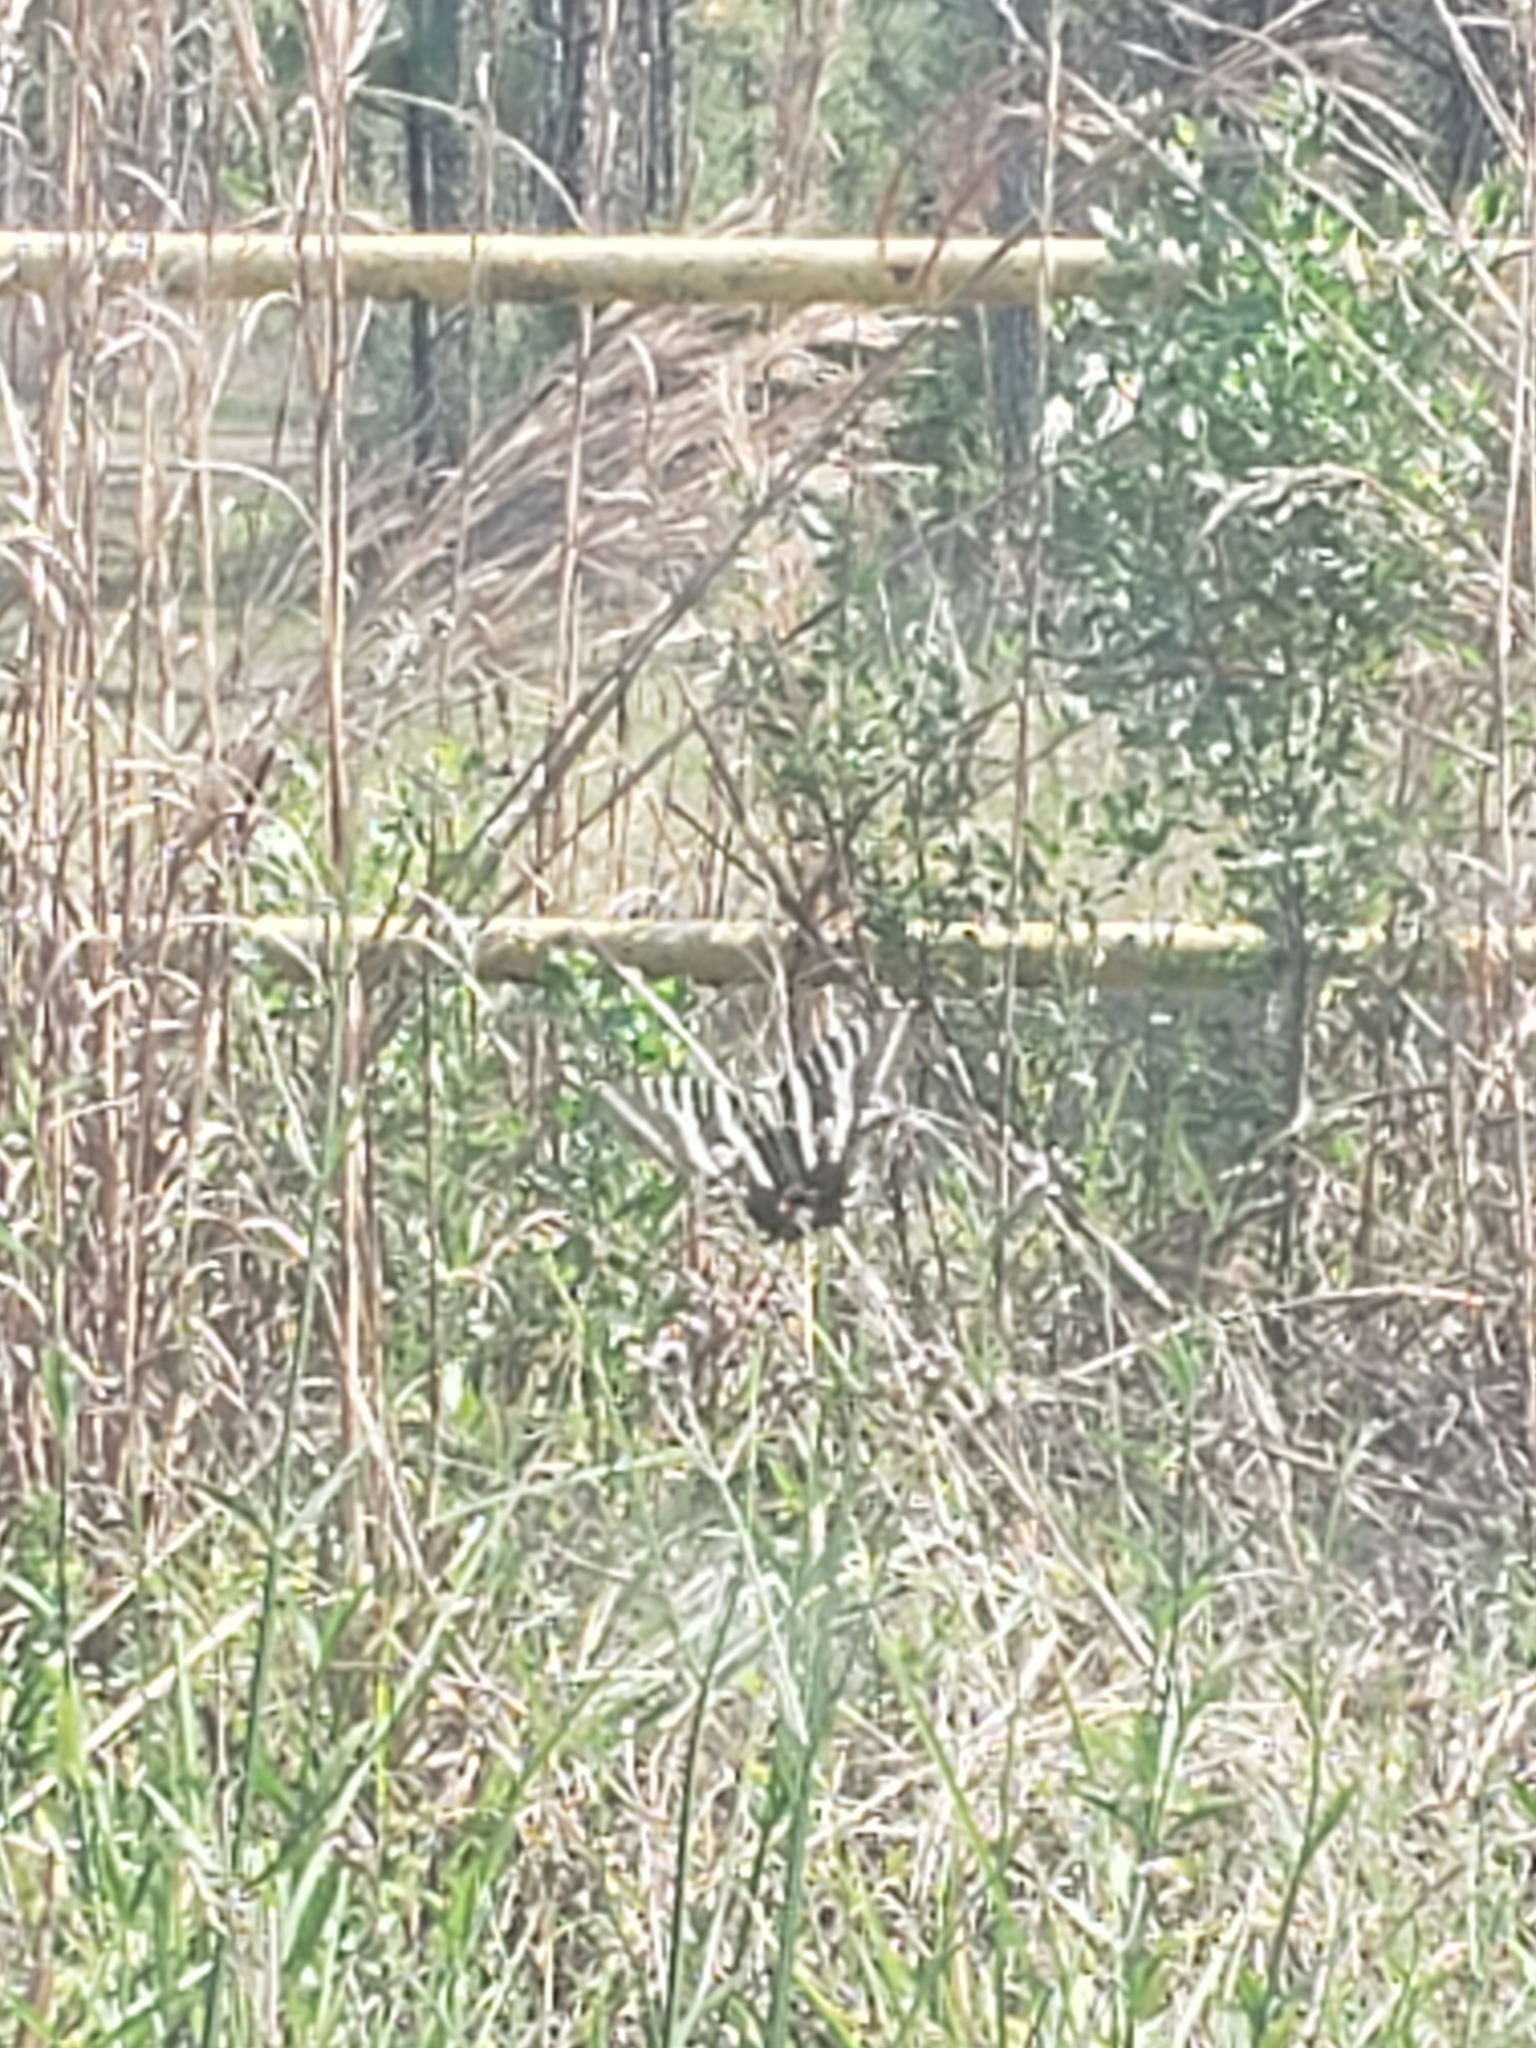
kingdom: Animalia
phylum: Arthropoda
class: Insecta
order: Lepidoptera
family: Papilionidae
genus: Protographium
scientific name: Protographium marcellus
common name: Zebra swallowtail
